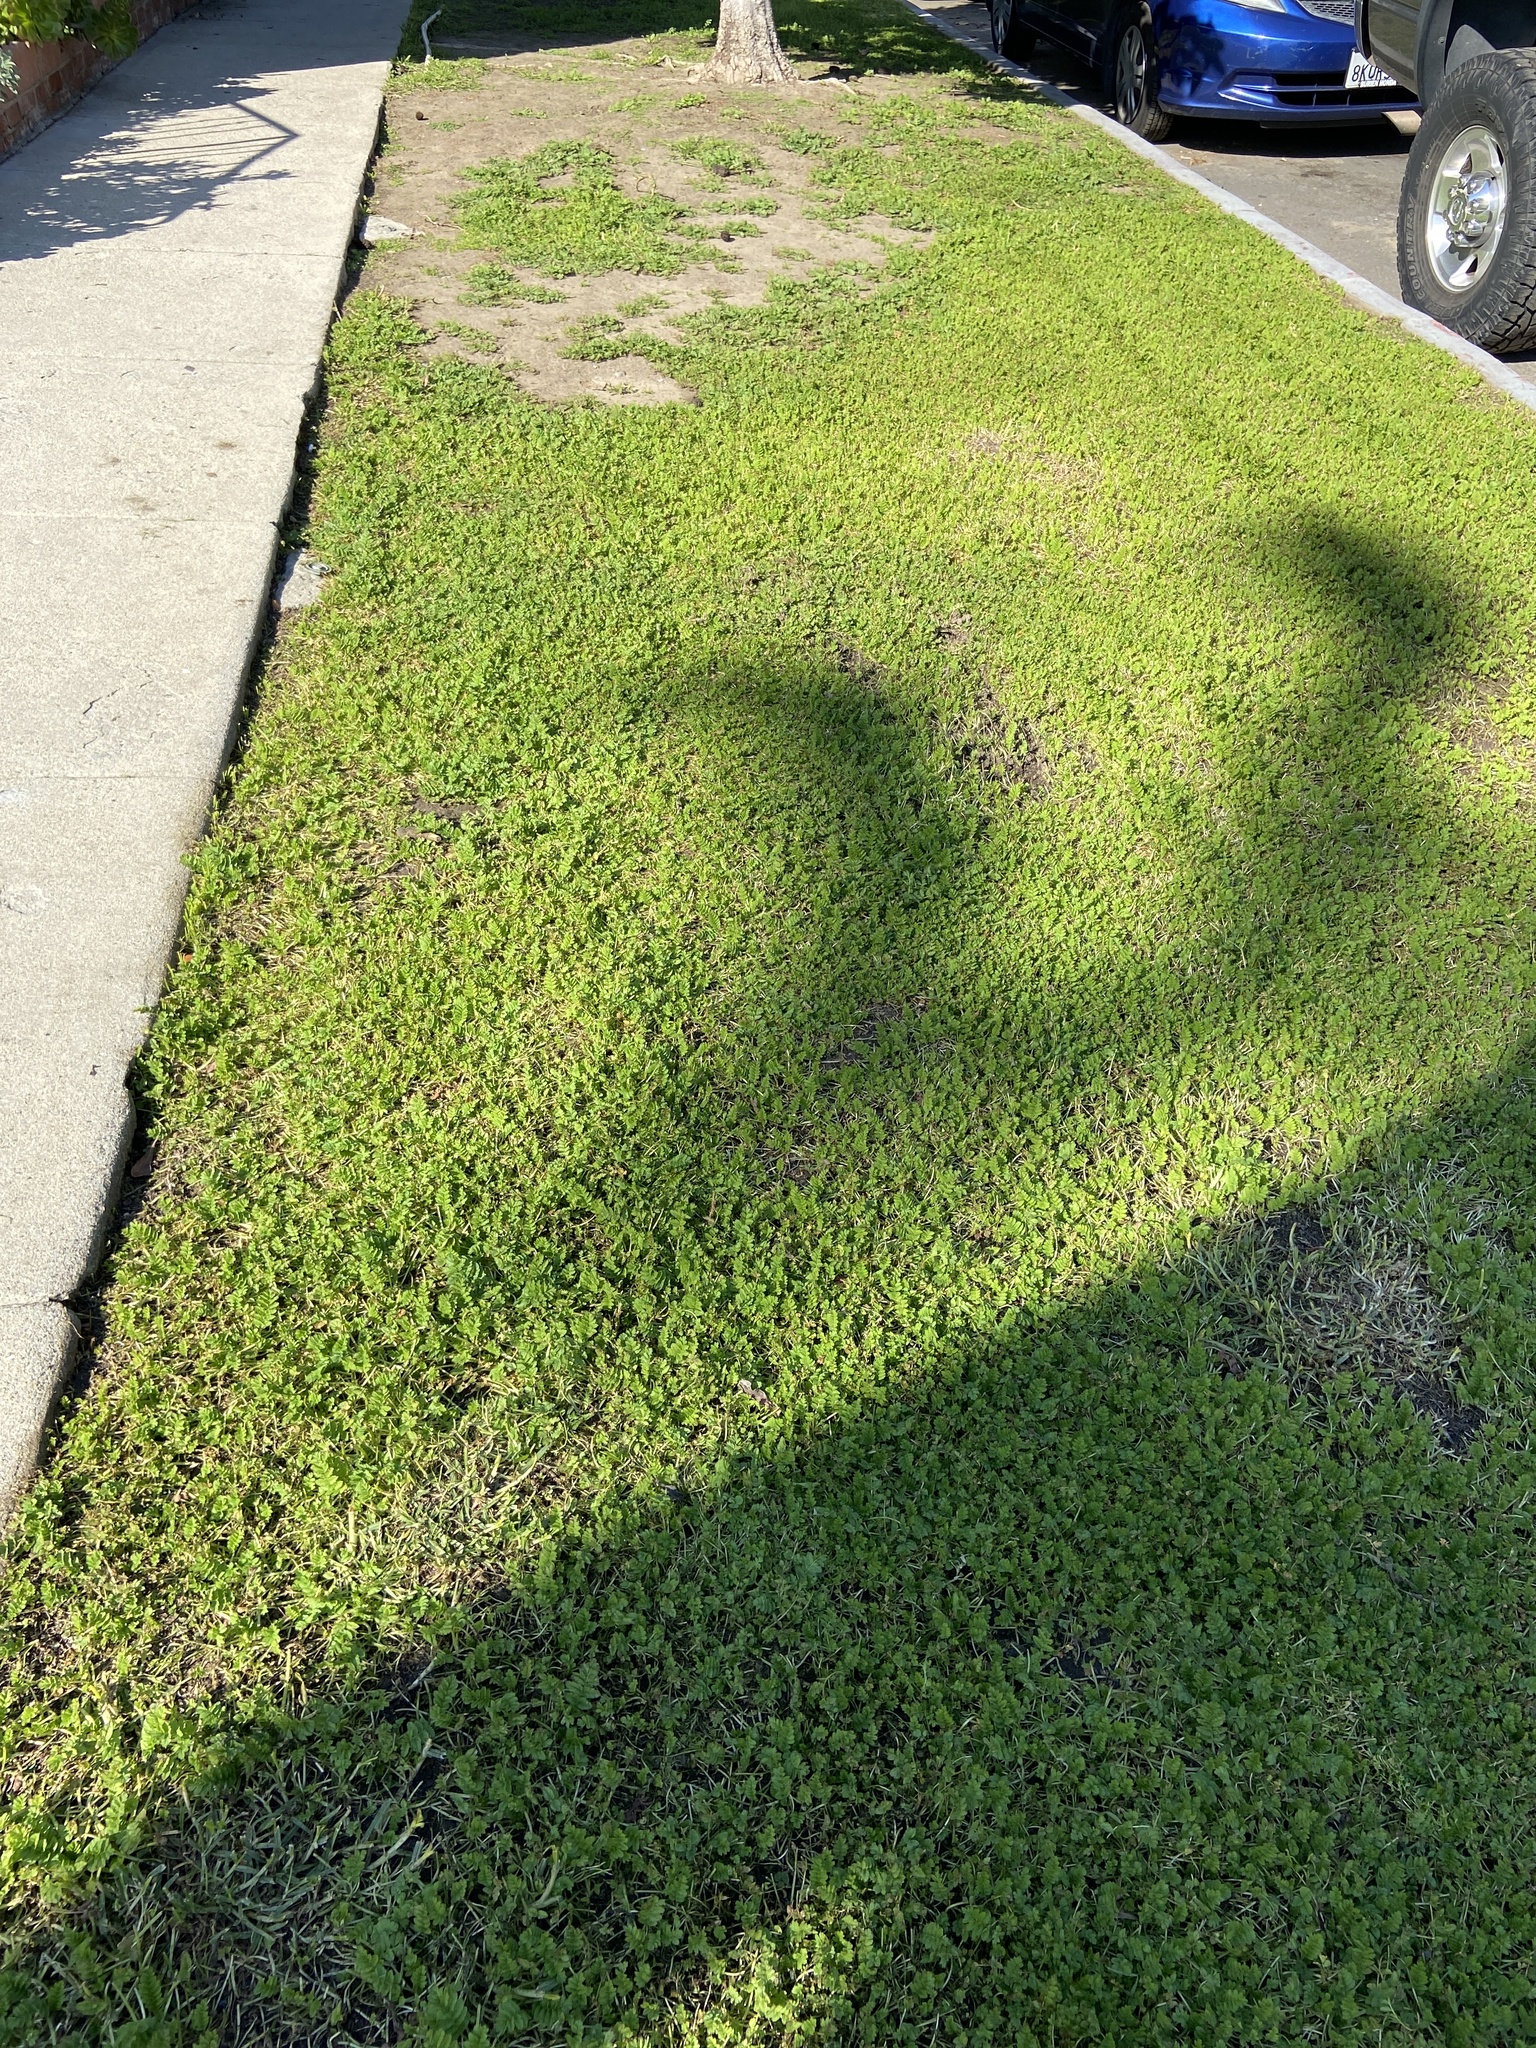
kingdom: Plantae
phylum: Tracheophyta
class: Magnoliopsida
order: Geraniales
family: Geraniaceae
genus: Erodium
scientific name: Erodium moschatum
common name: Musk stork's-bill
